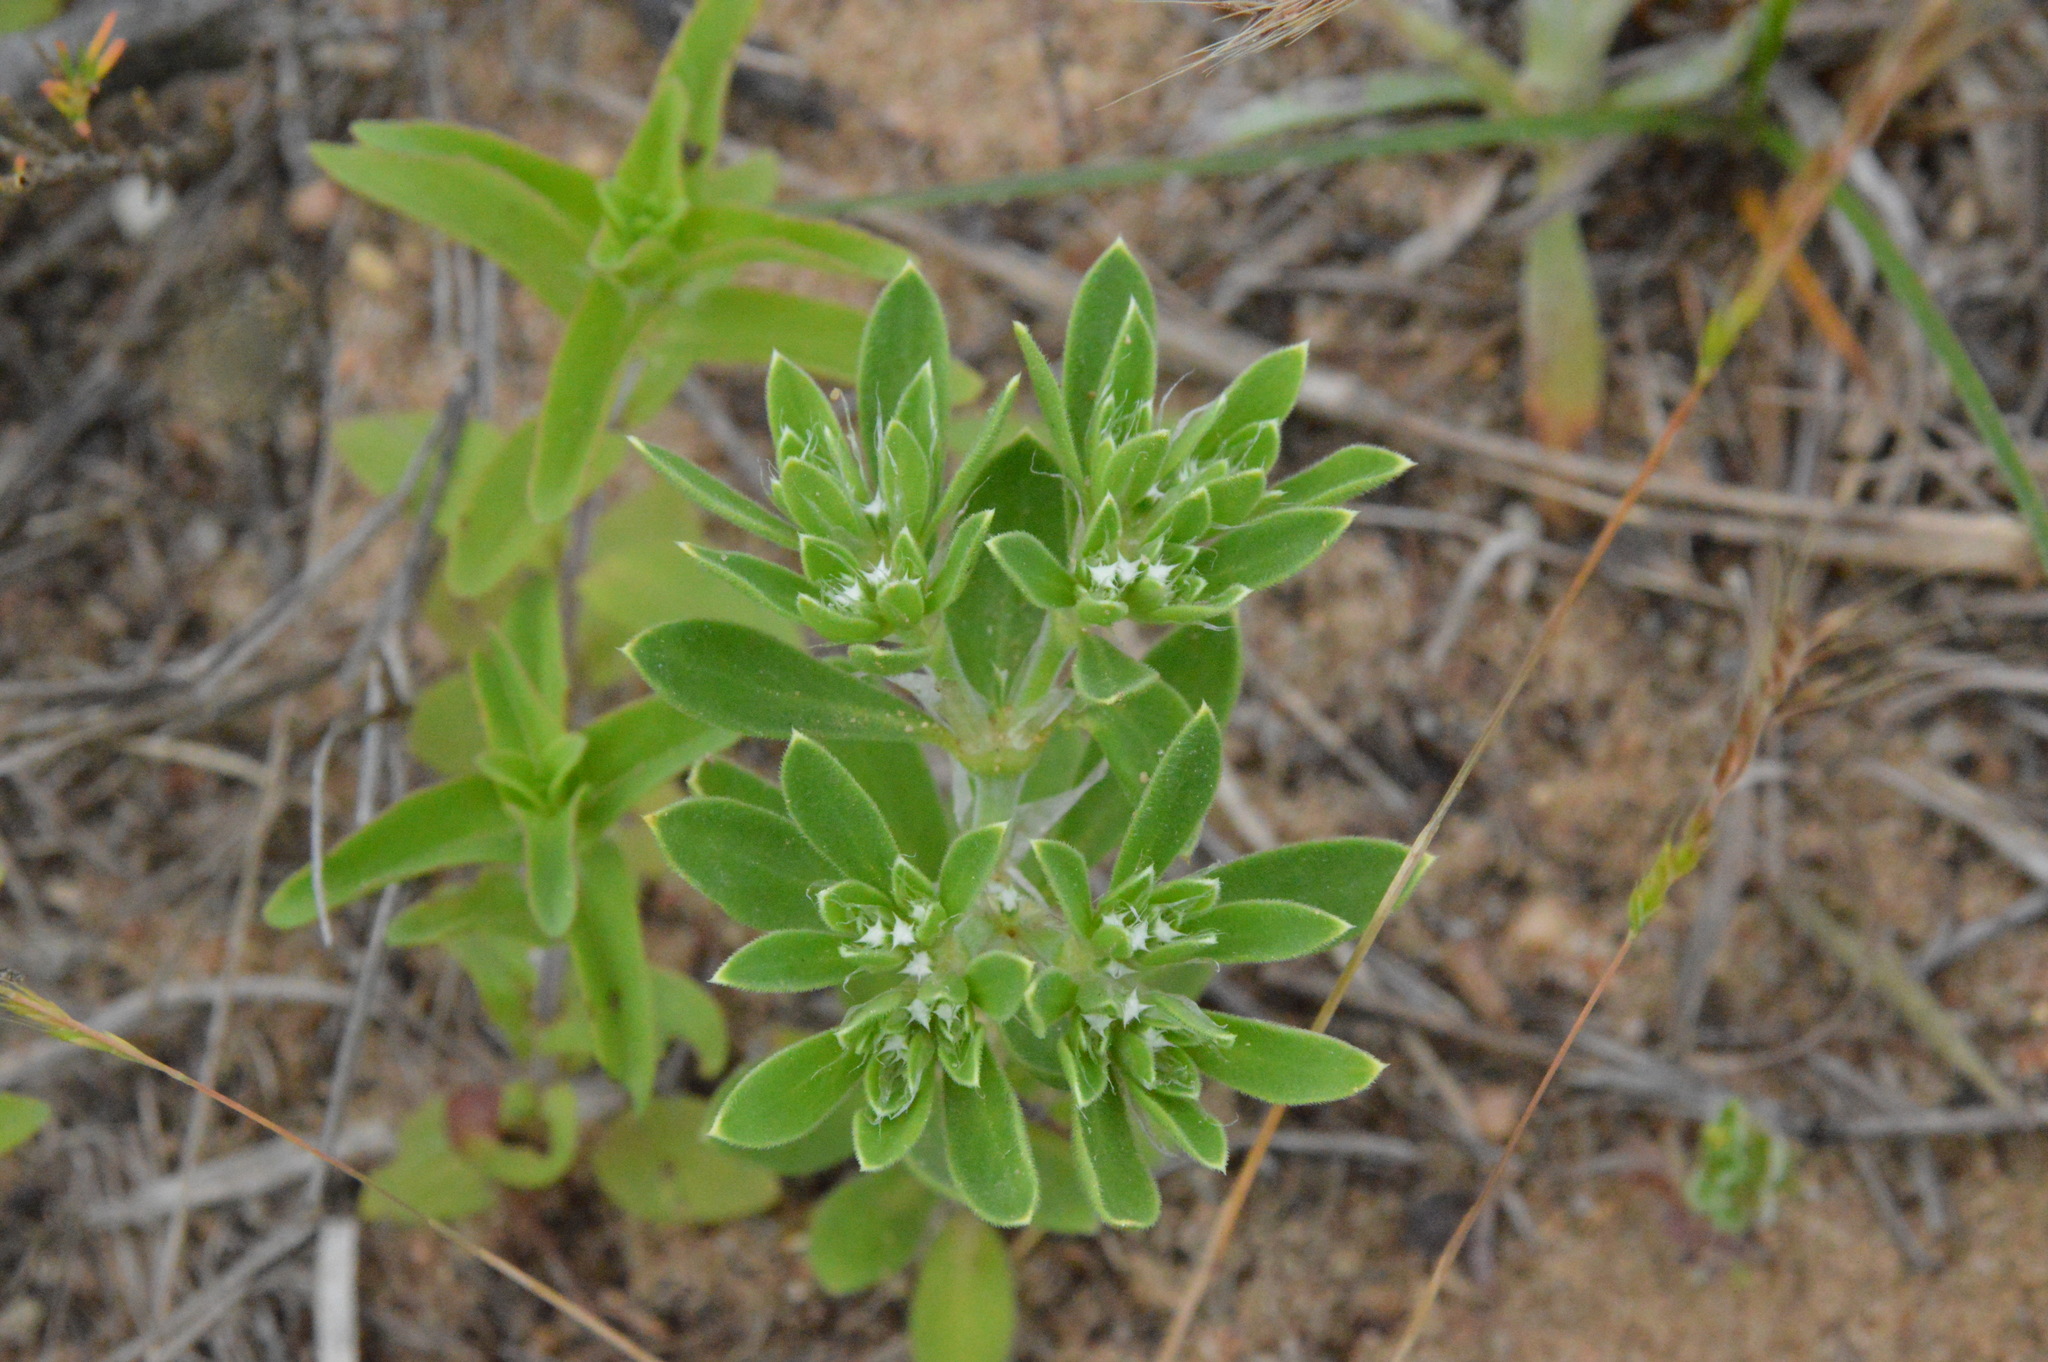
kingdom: Plantae
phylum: Tracheophyta
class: Magnoliopsida
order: Caryophyllales
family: Caryophyllaceae
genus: Paronychia
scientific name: Paronychia drummondii
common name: Drummond's nailwort
